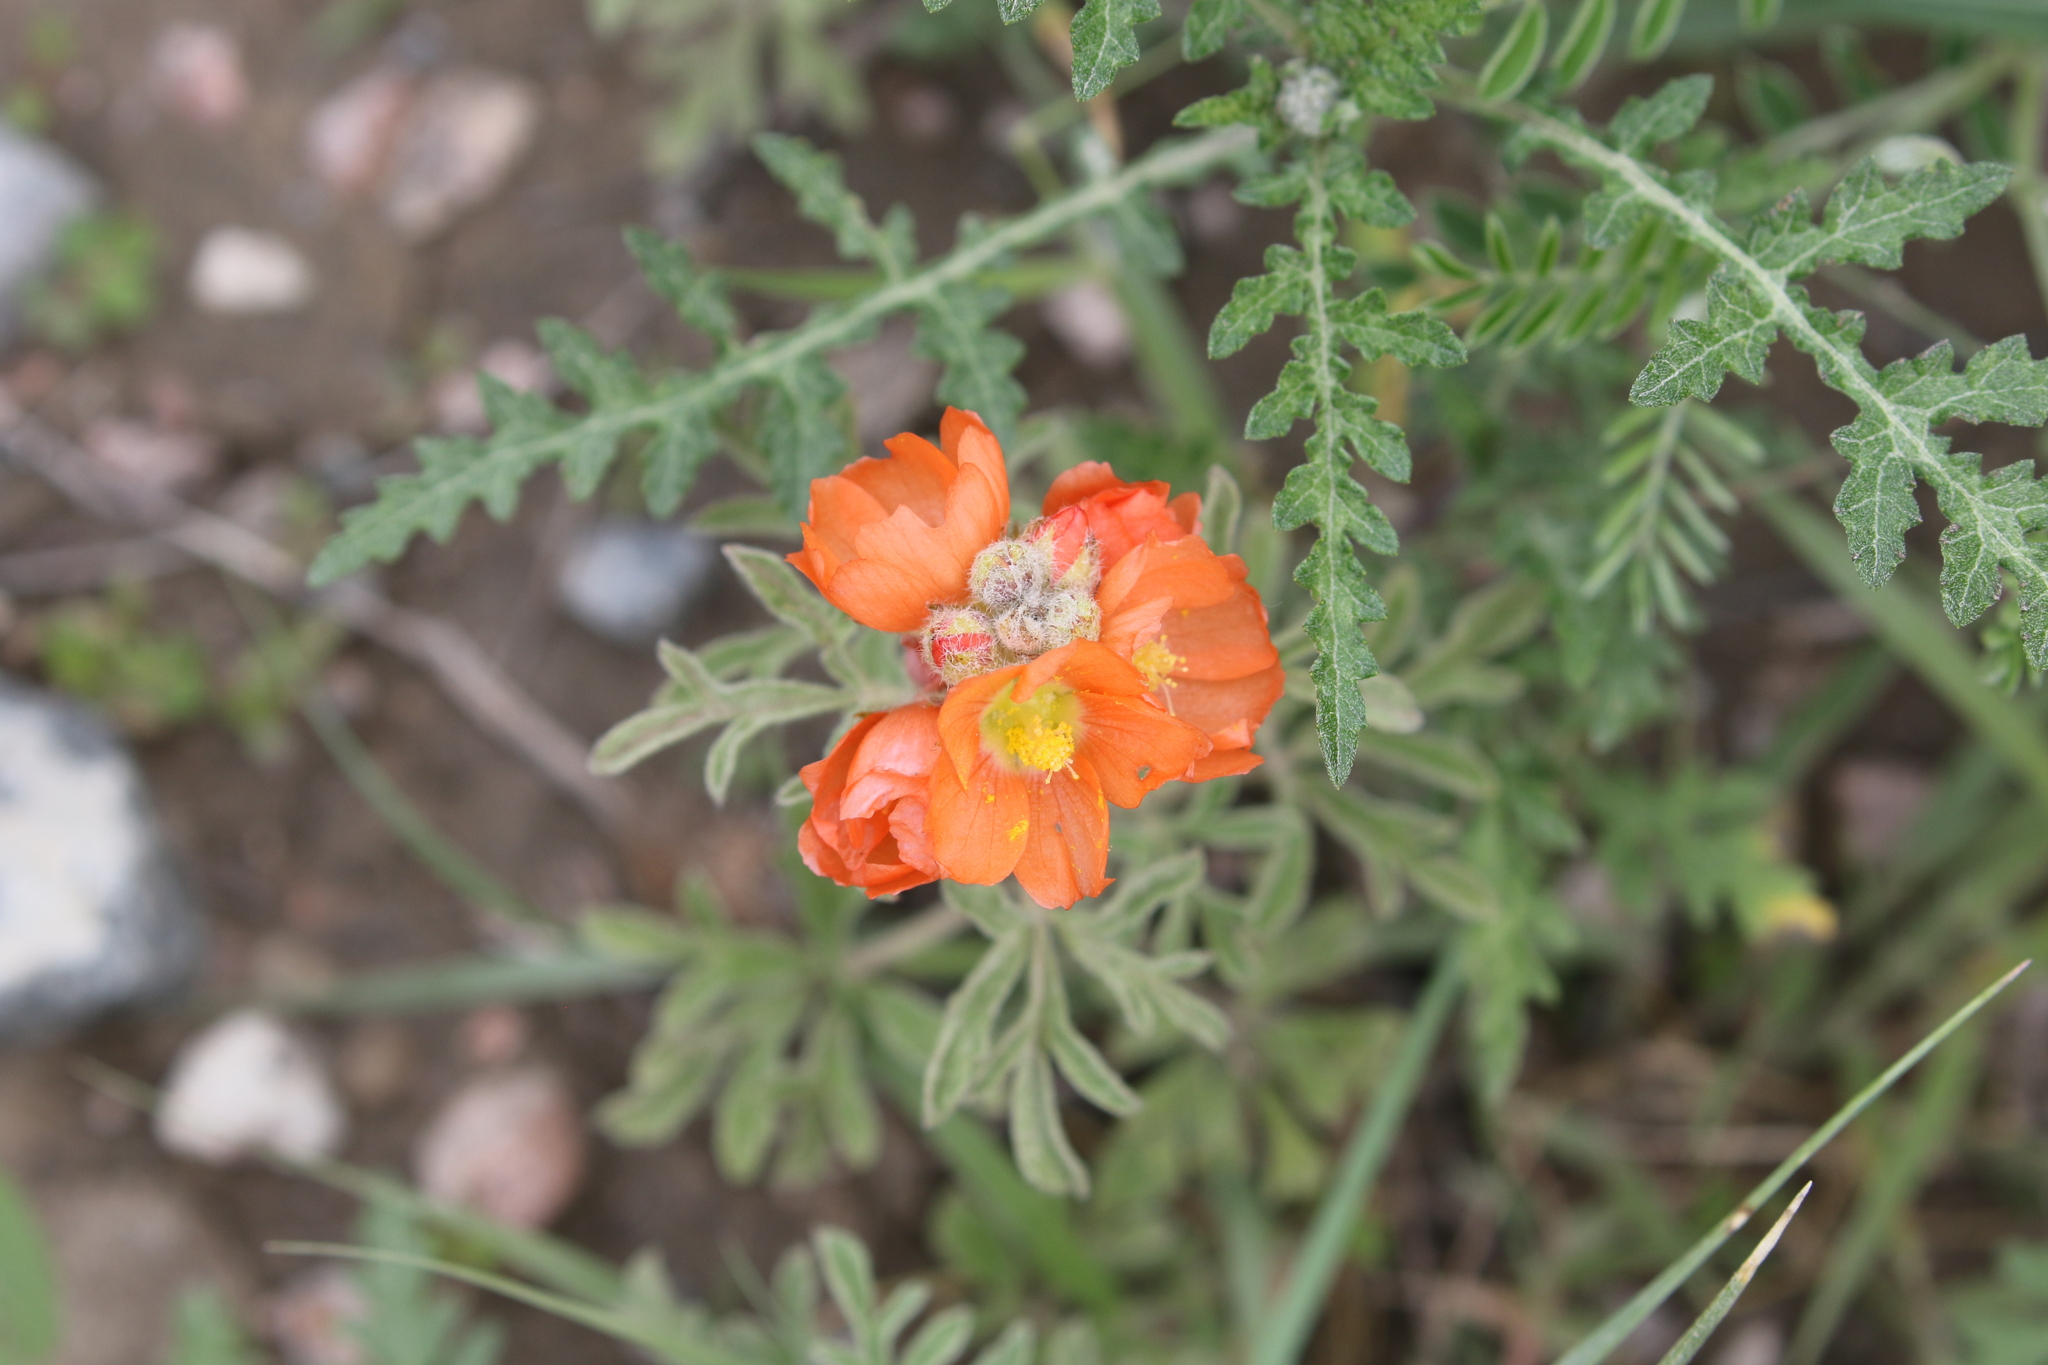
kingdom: Plantae
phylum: Tracheophyta
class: Magnoliopsida
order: Malvales
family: Malvaceae
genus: Sphaeralcea
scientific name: Sphaeralcea coccinea
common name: Moss-rose
